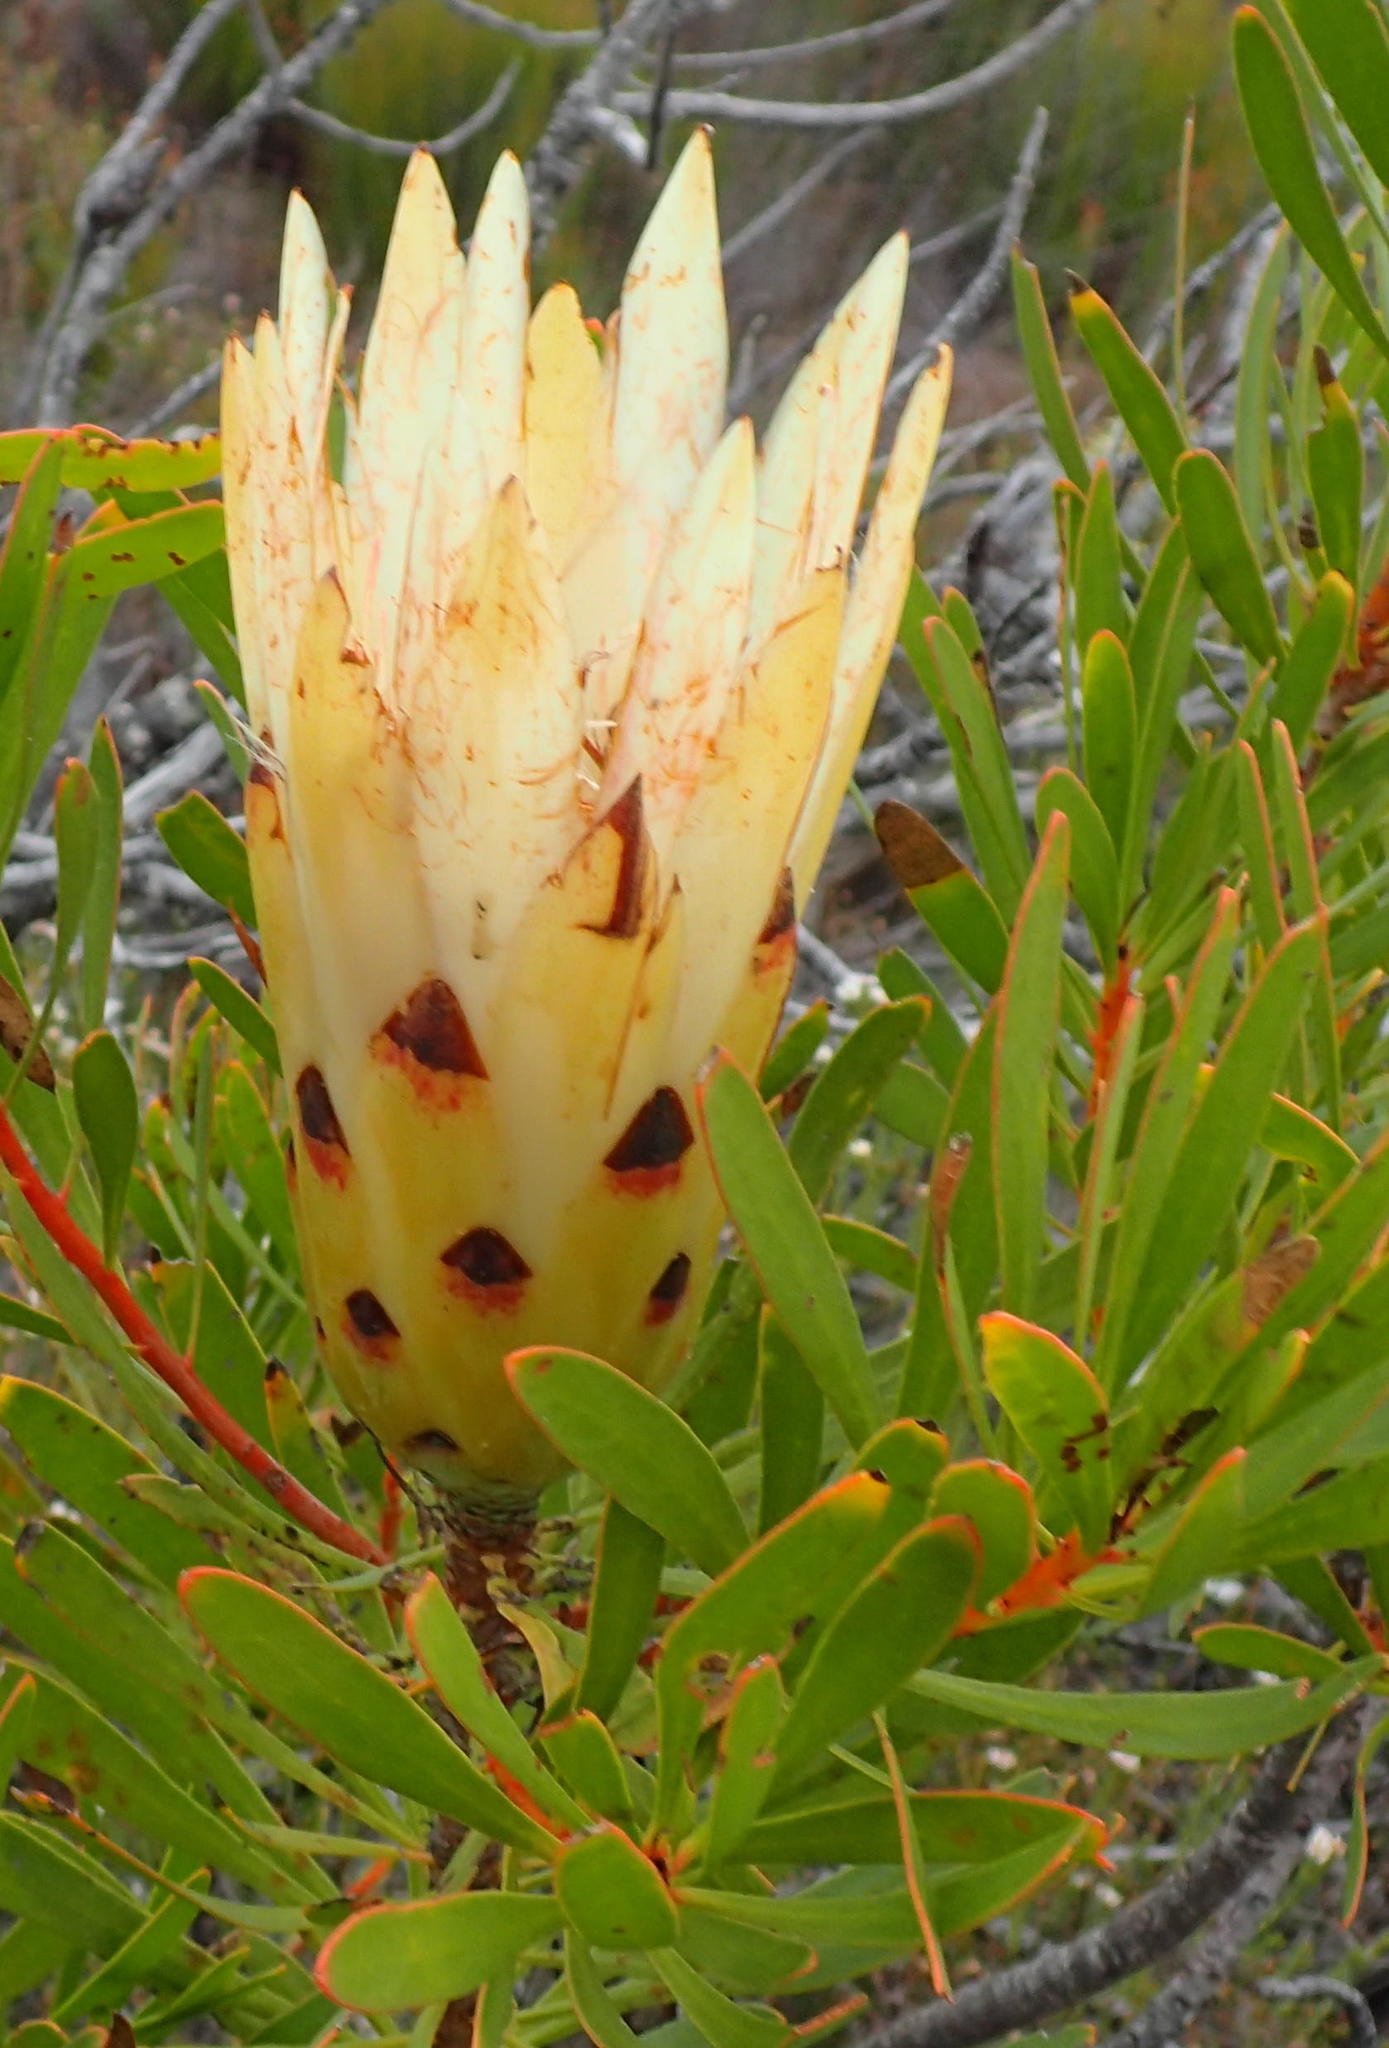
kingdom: Plantae
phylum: Tracheophyta
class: Magnoliopsida
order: Proteales
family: Proteaceae
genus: Protea
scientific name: Protea repens
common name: Sugarbush
